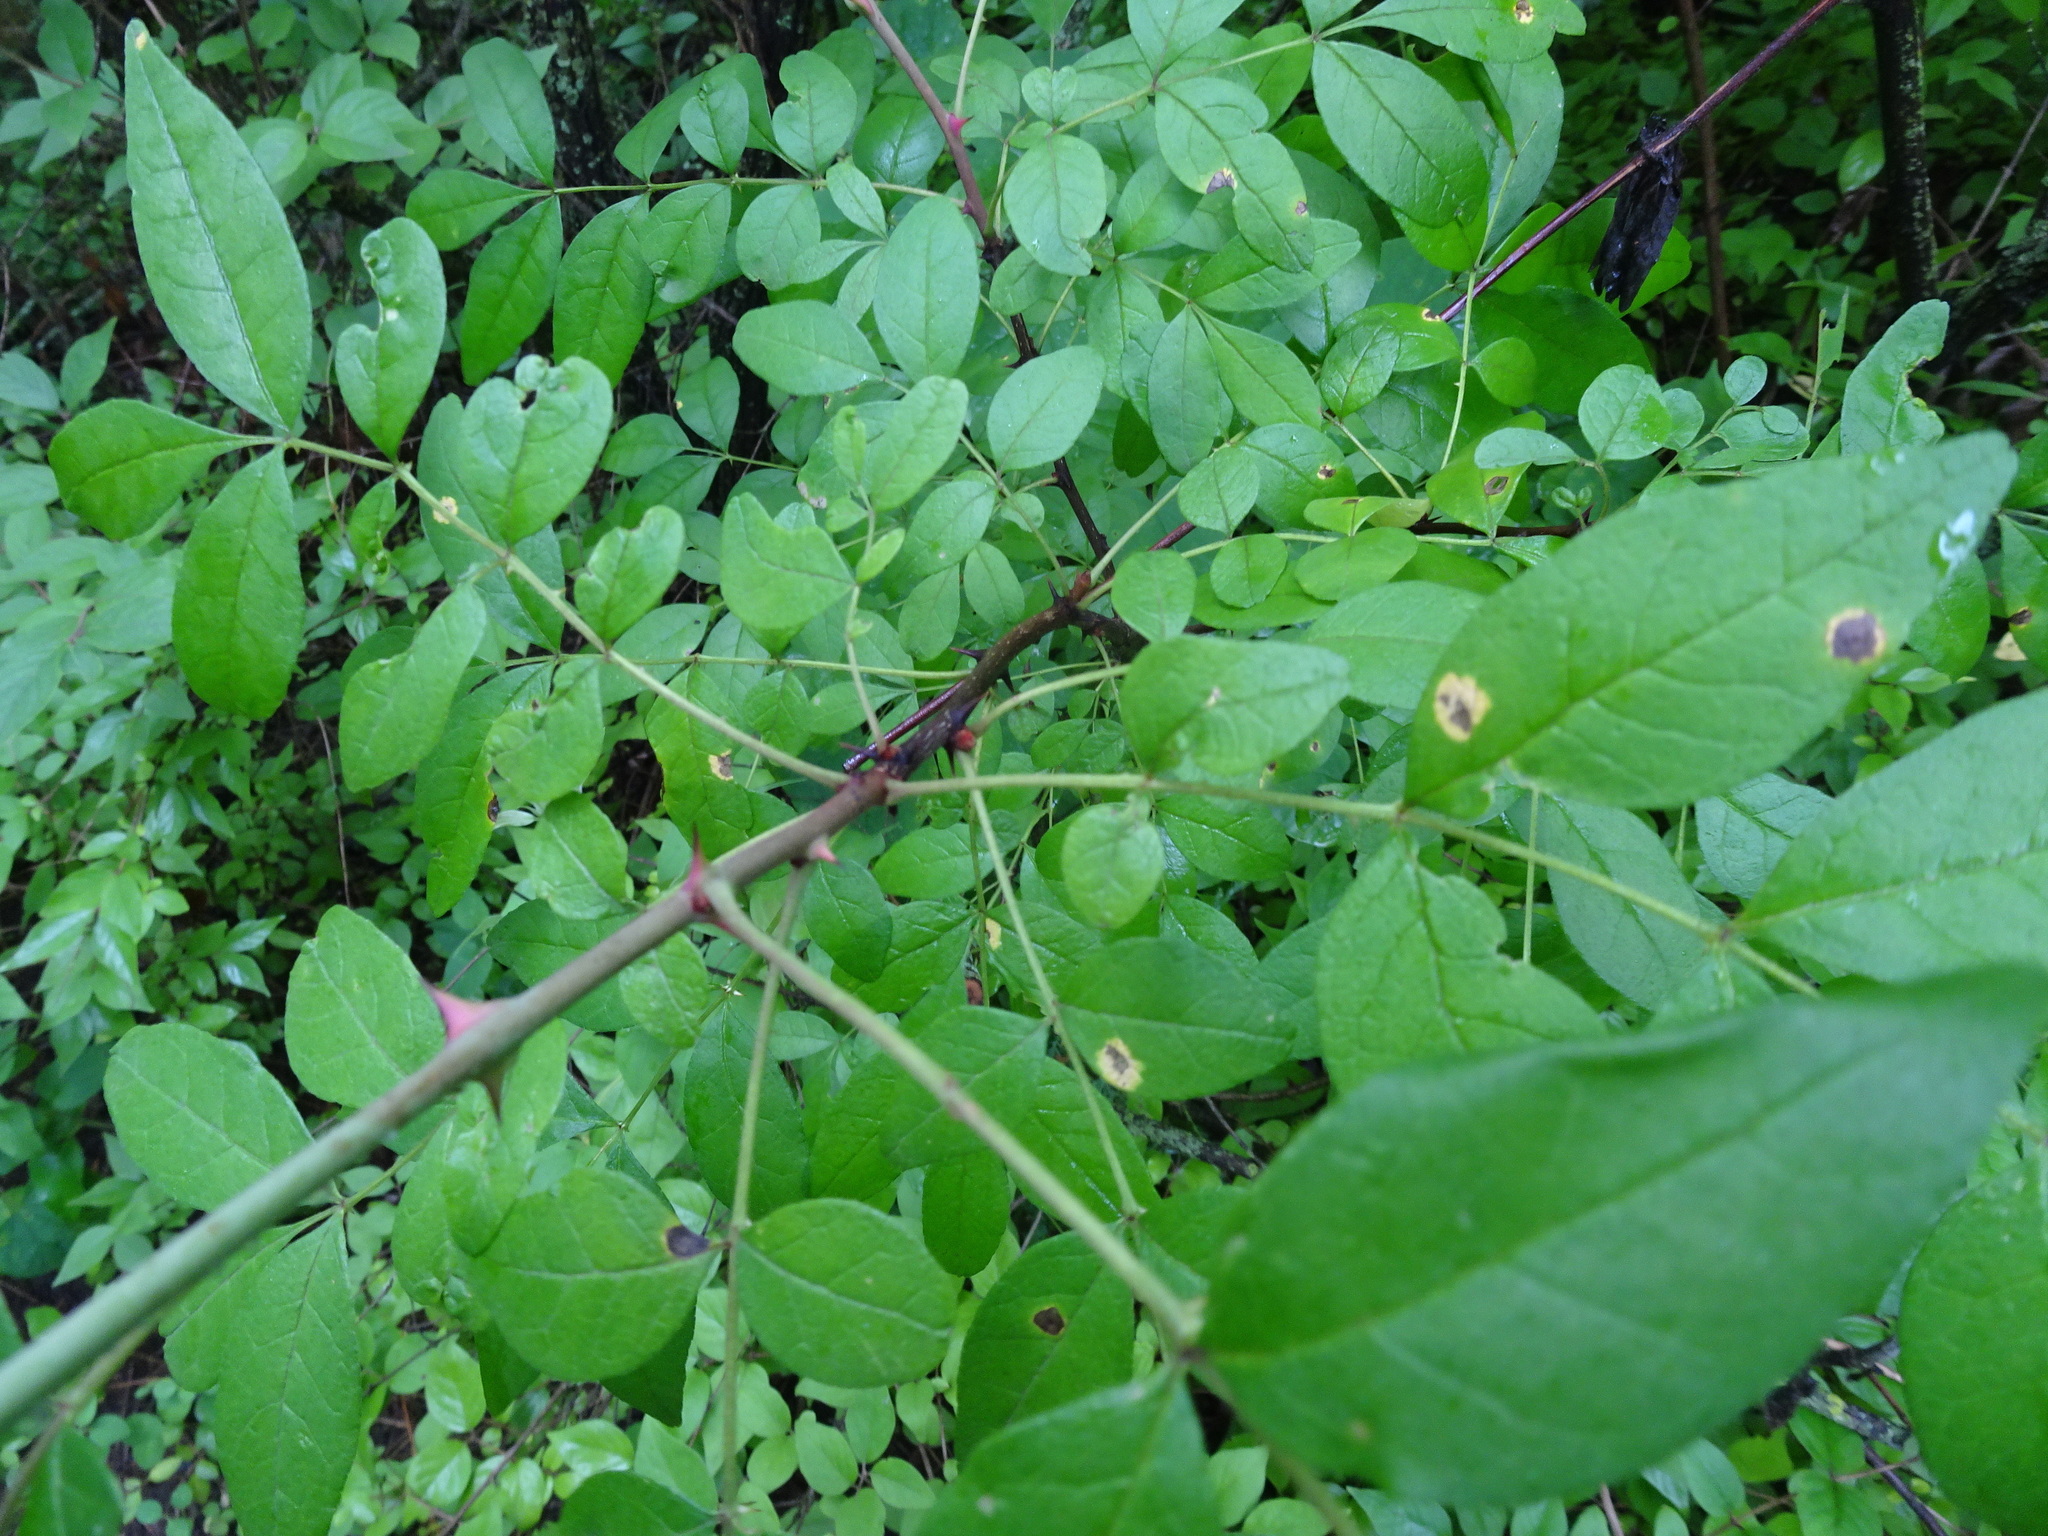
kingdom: Plantae
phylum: Tracheophyta
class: Magnoliopsida
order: Sapindales
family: Rutaceae
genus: Zanthoxylum
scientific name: Zanthoxylum americanum
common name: Northern prickly-ash
